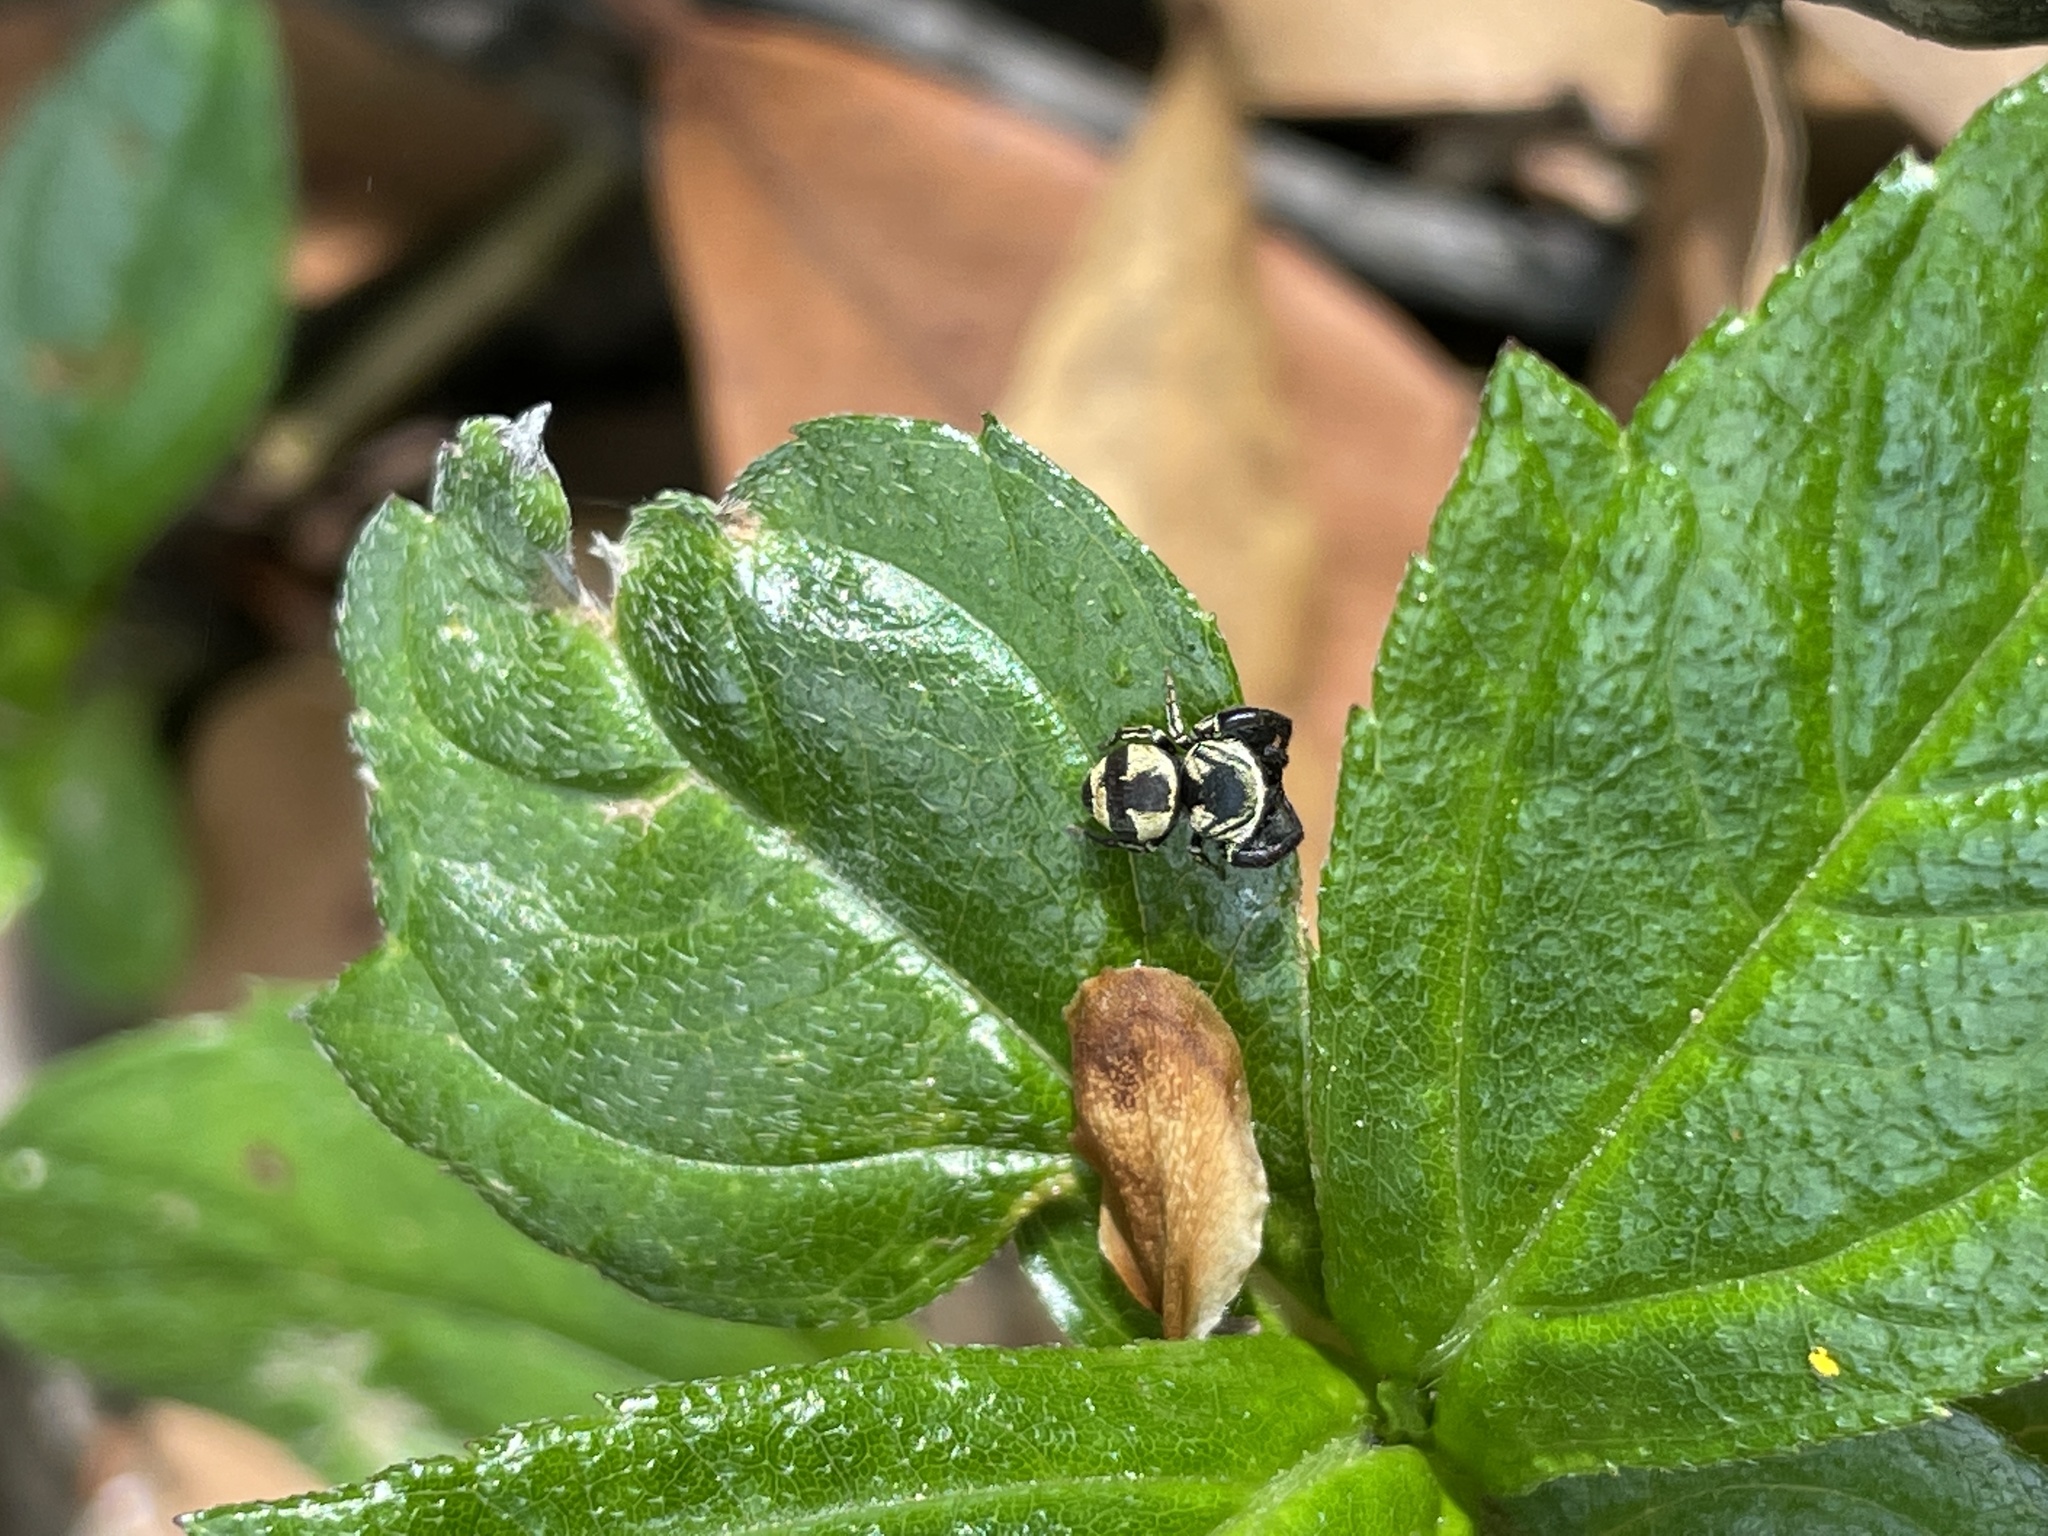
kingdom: Animalia
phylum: Arthropoda
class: Arachnida
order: Araneae
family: Salticidae
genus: Rhene
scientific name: Rhene flavicomans
